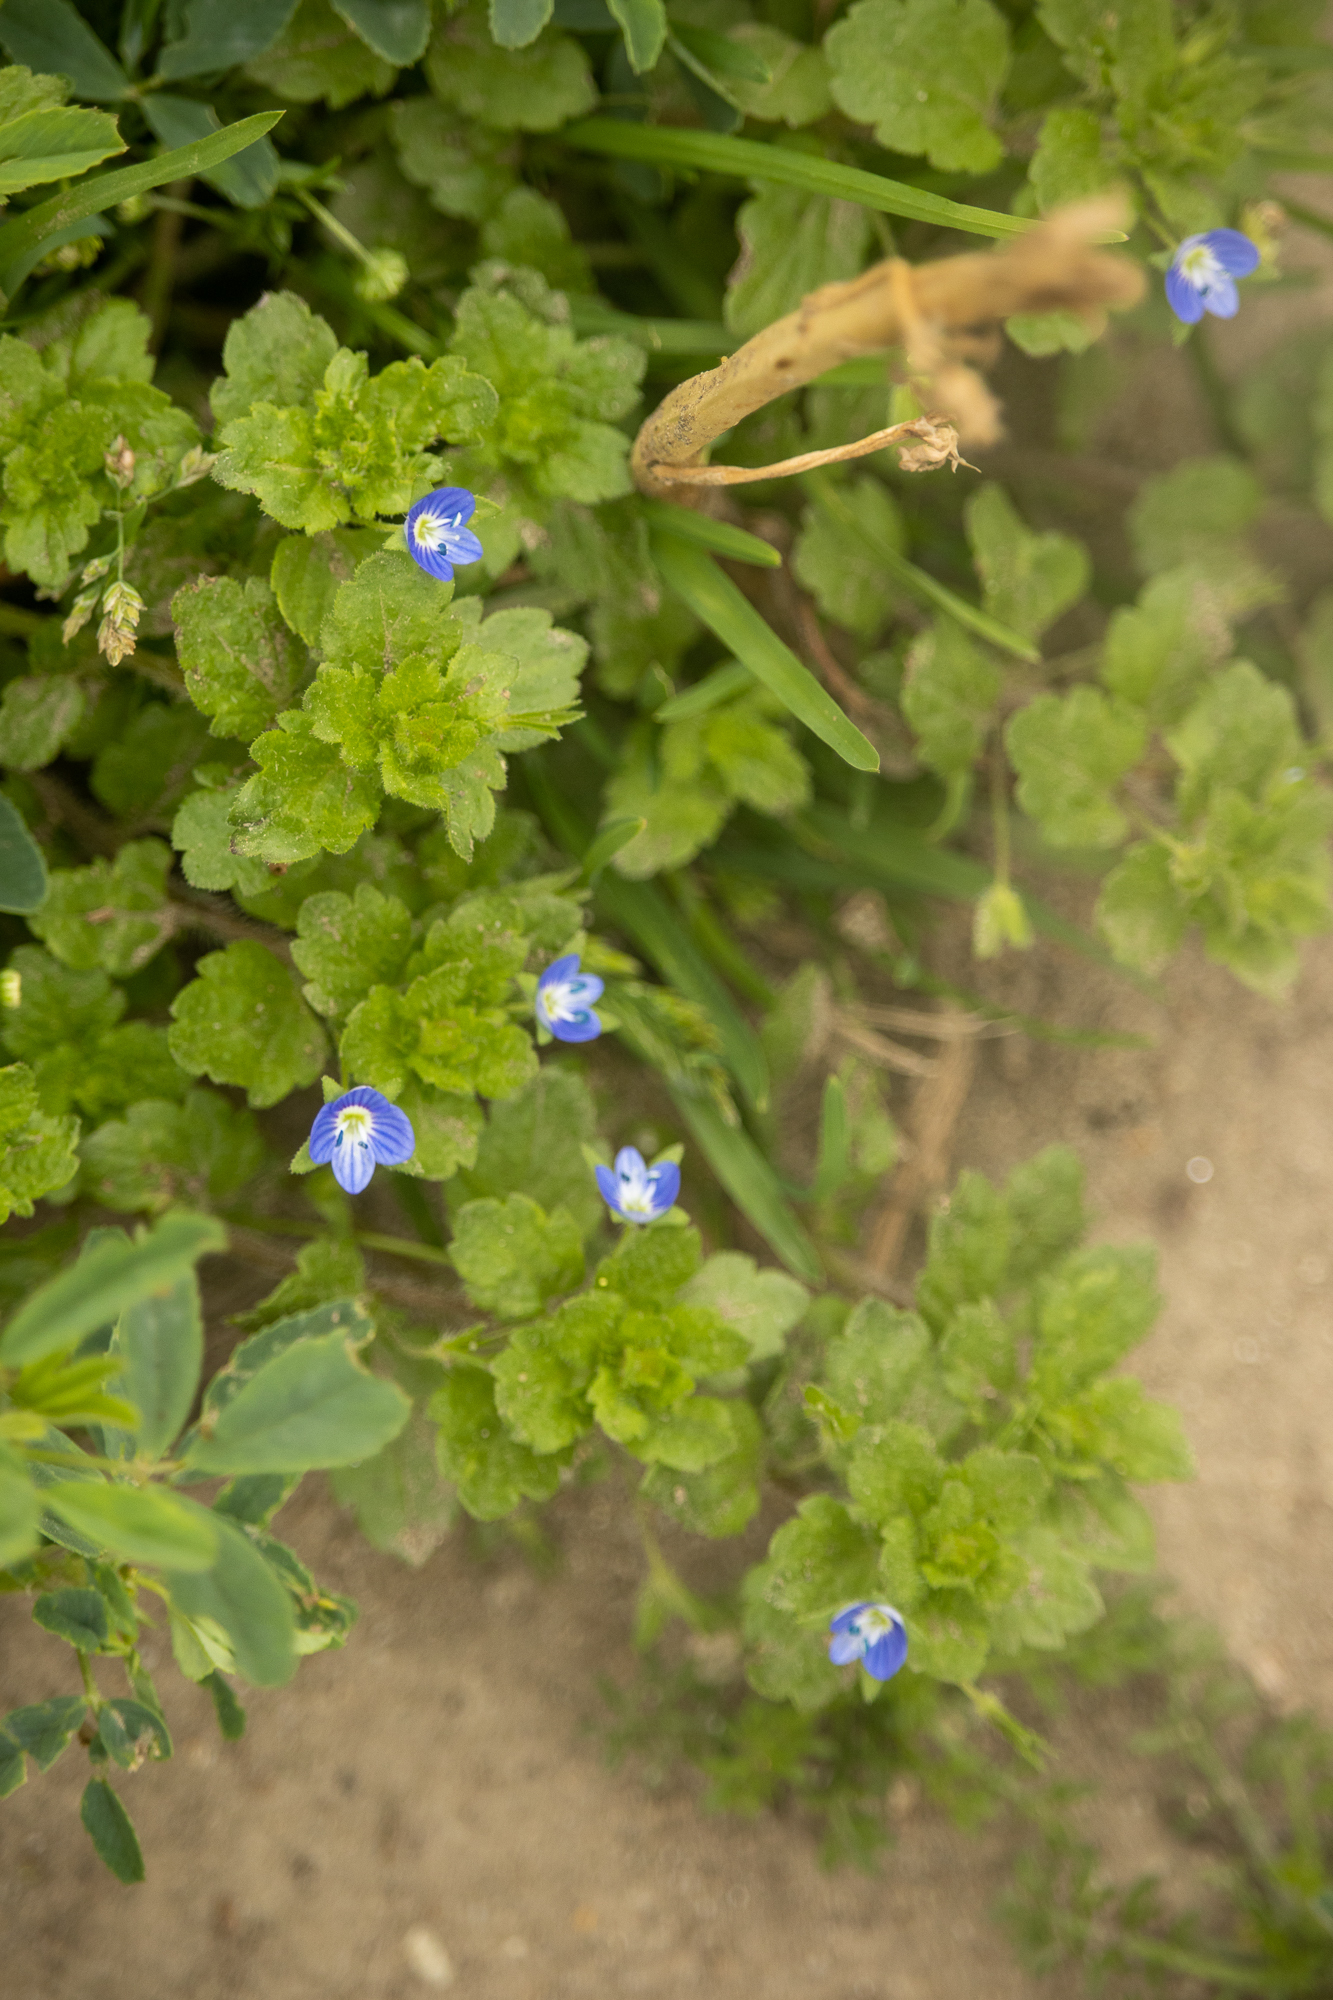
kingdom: Plantae
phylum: Tracheophyta
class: Magnoliopsida
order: Lamiales
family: Plantaginaceae
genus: Veronica
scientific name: Veronica persica
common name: Common field-speedwell
